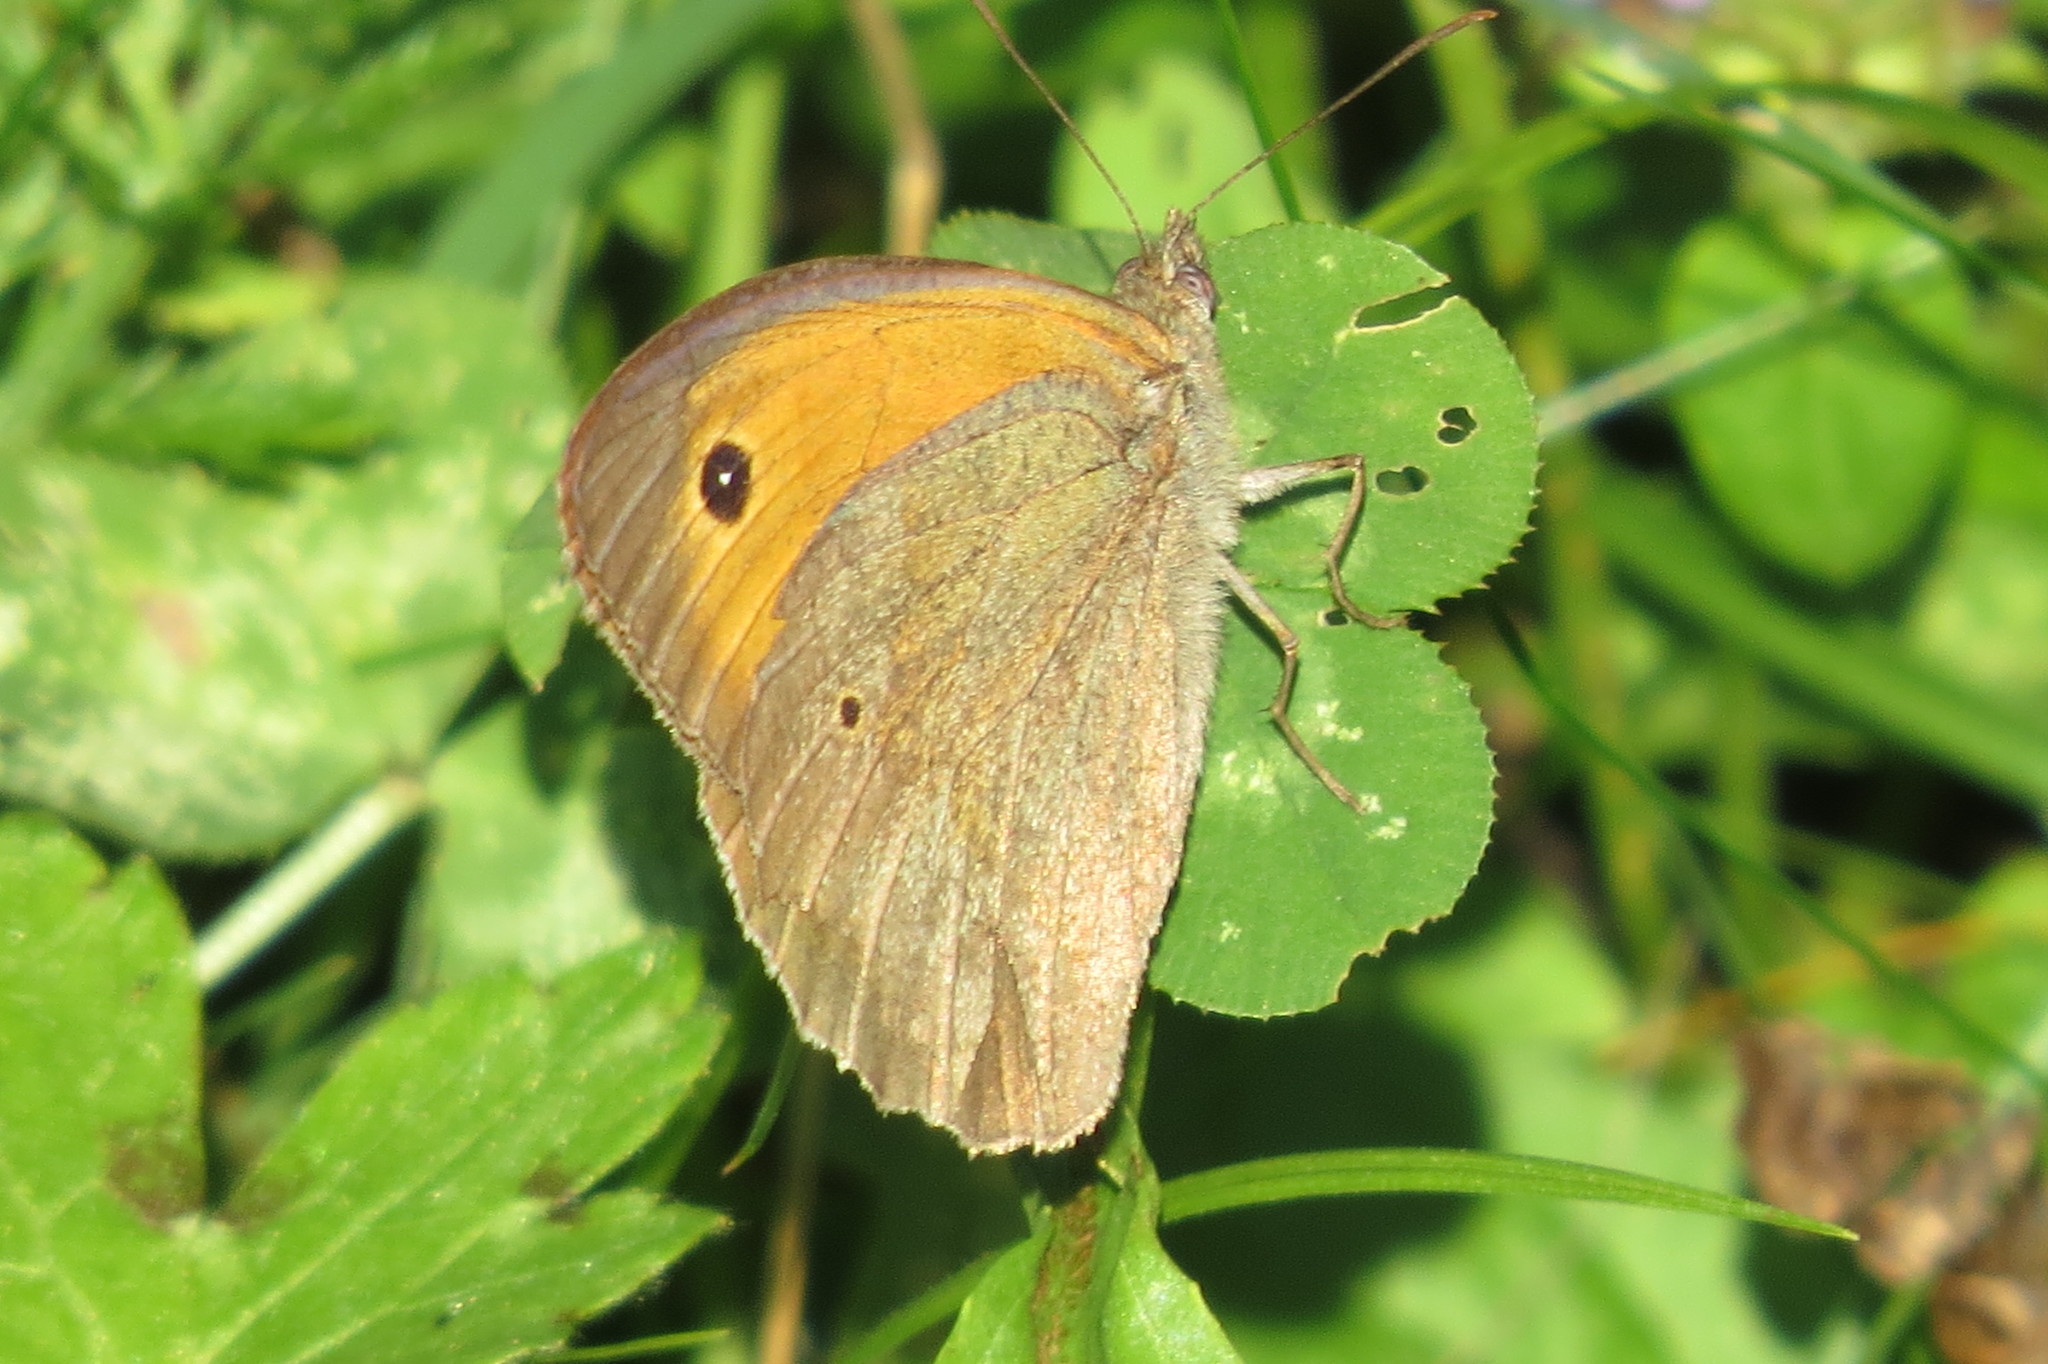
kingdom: Animalia
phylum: Arthropoda
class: Insecta
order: Lepidoptera
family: Nymphalidae
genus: Maniola
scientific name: Maniola jurtina
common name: Meadow brown
